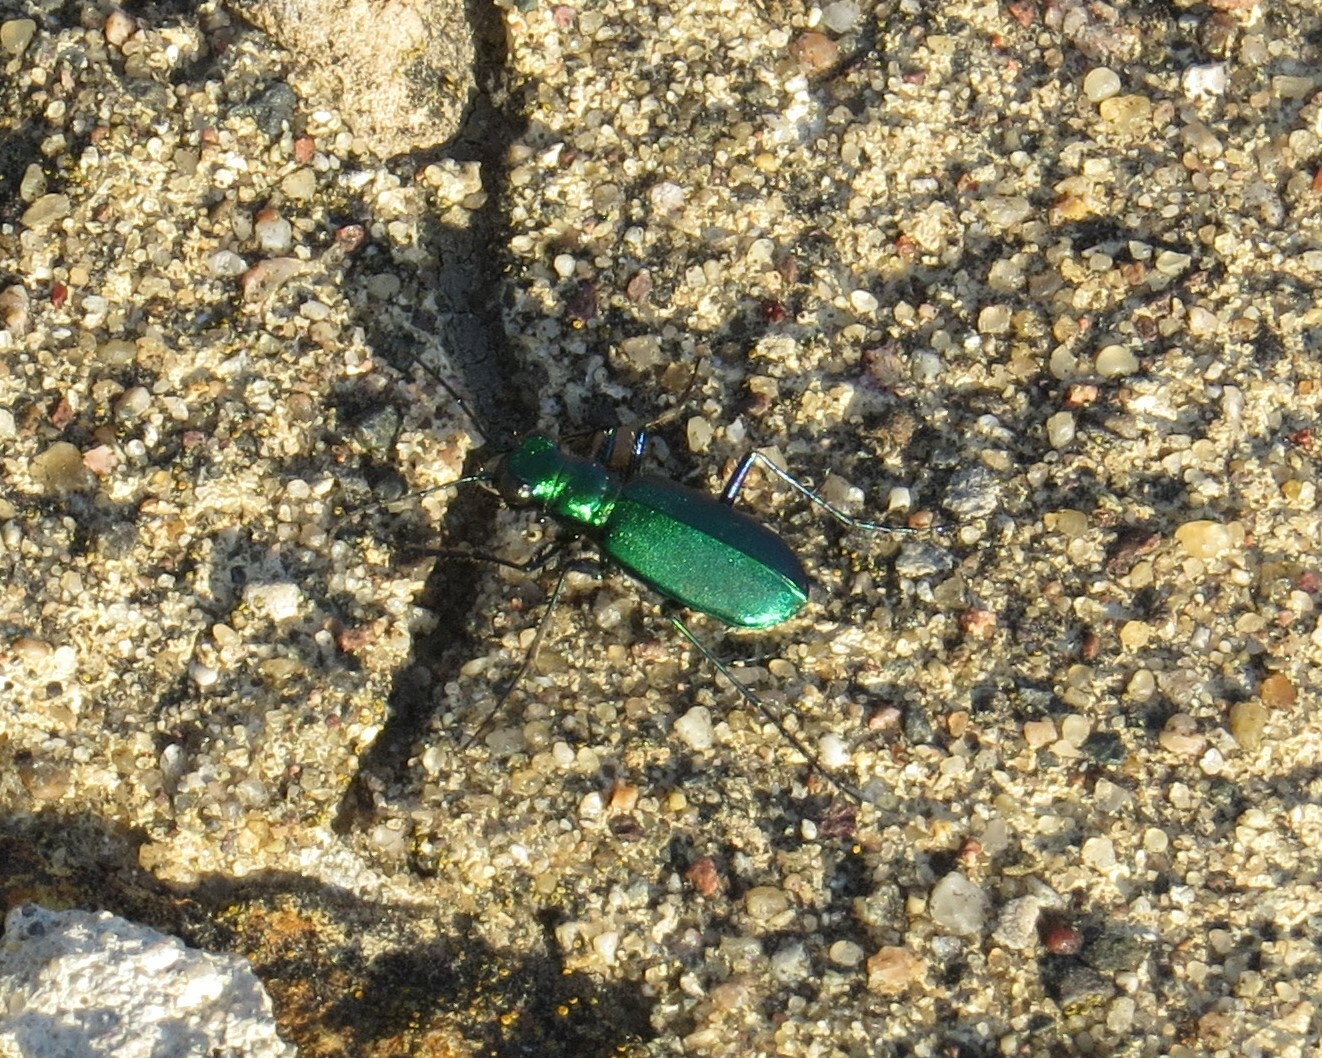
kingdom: Animalia
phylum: Arthropoda
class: Insecta
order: Coleoptera
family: Carabidae
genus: Cicindela
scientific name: Cicindela sexguttata
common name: Six-spotted tiger beetle
